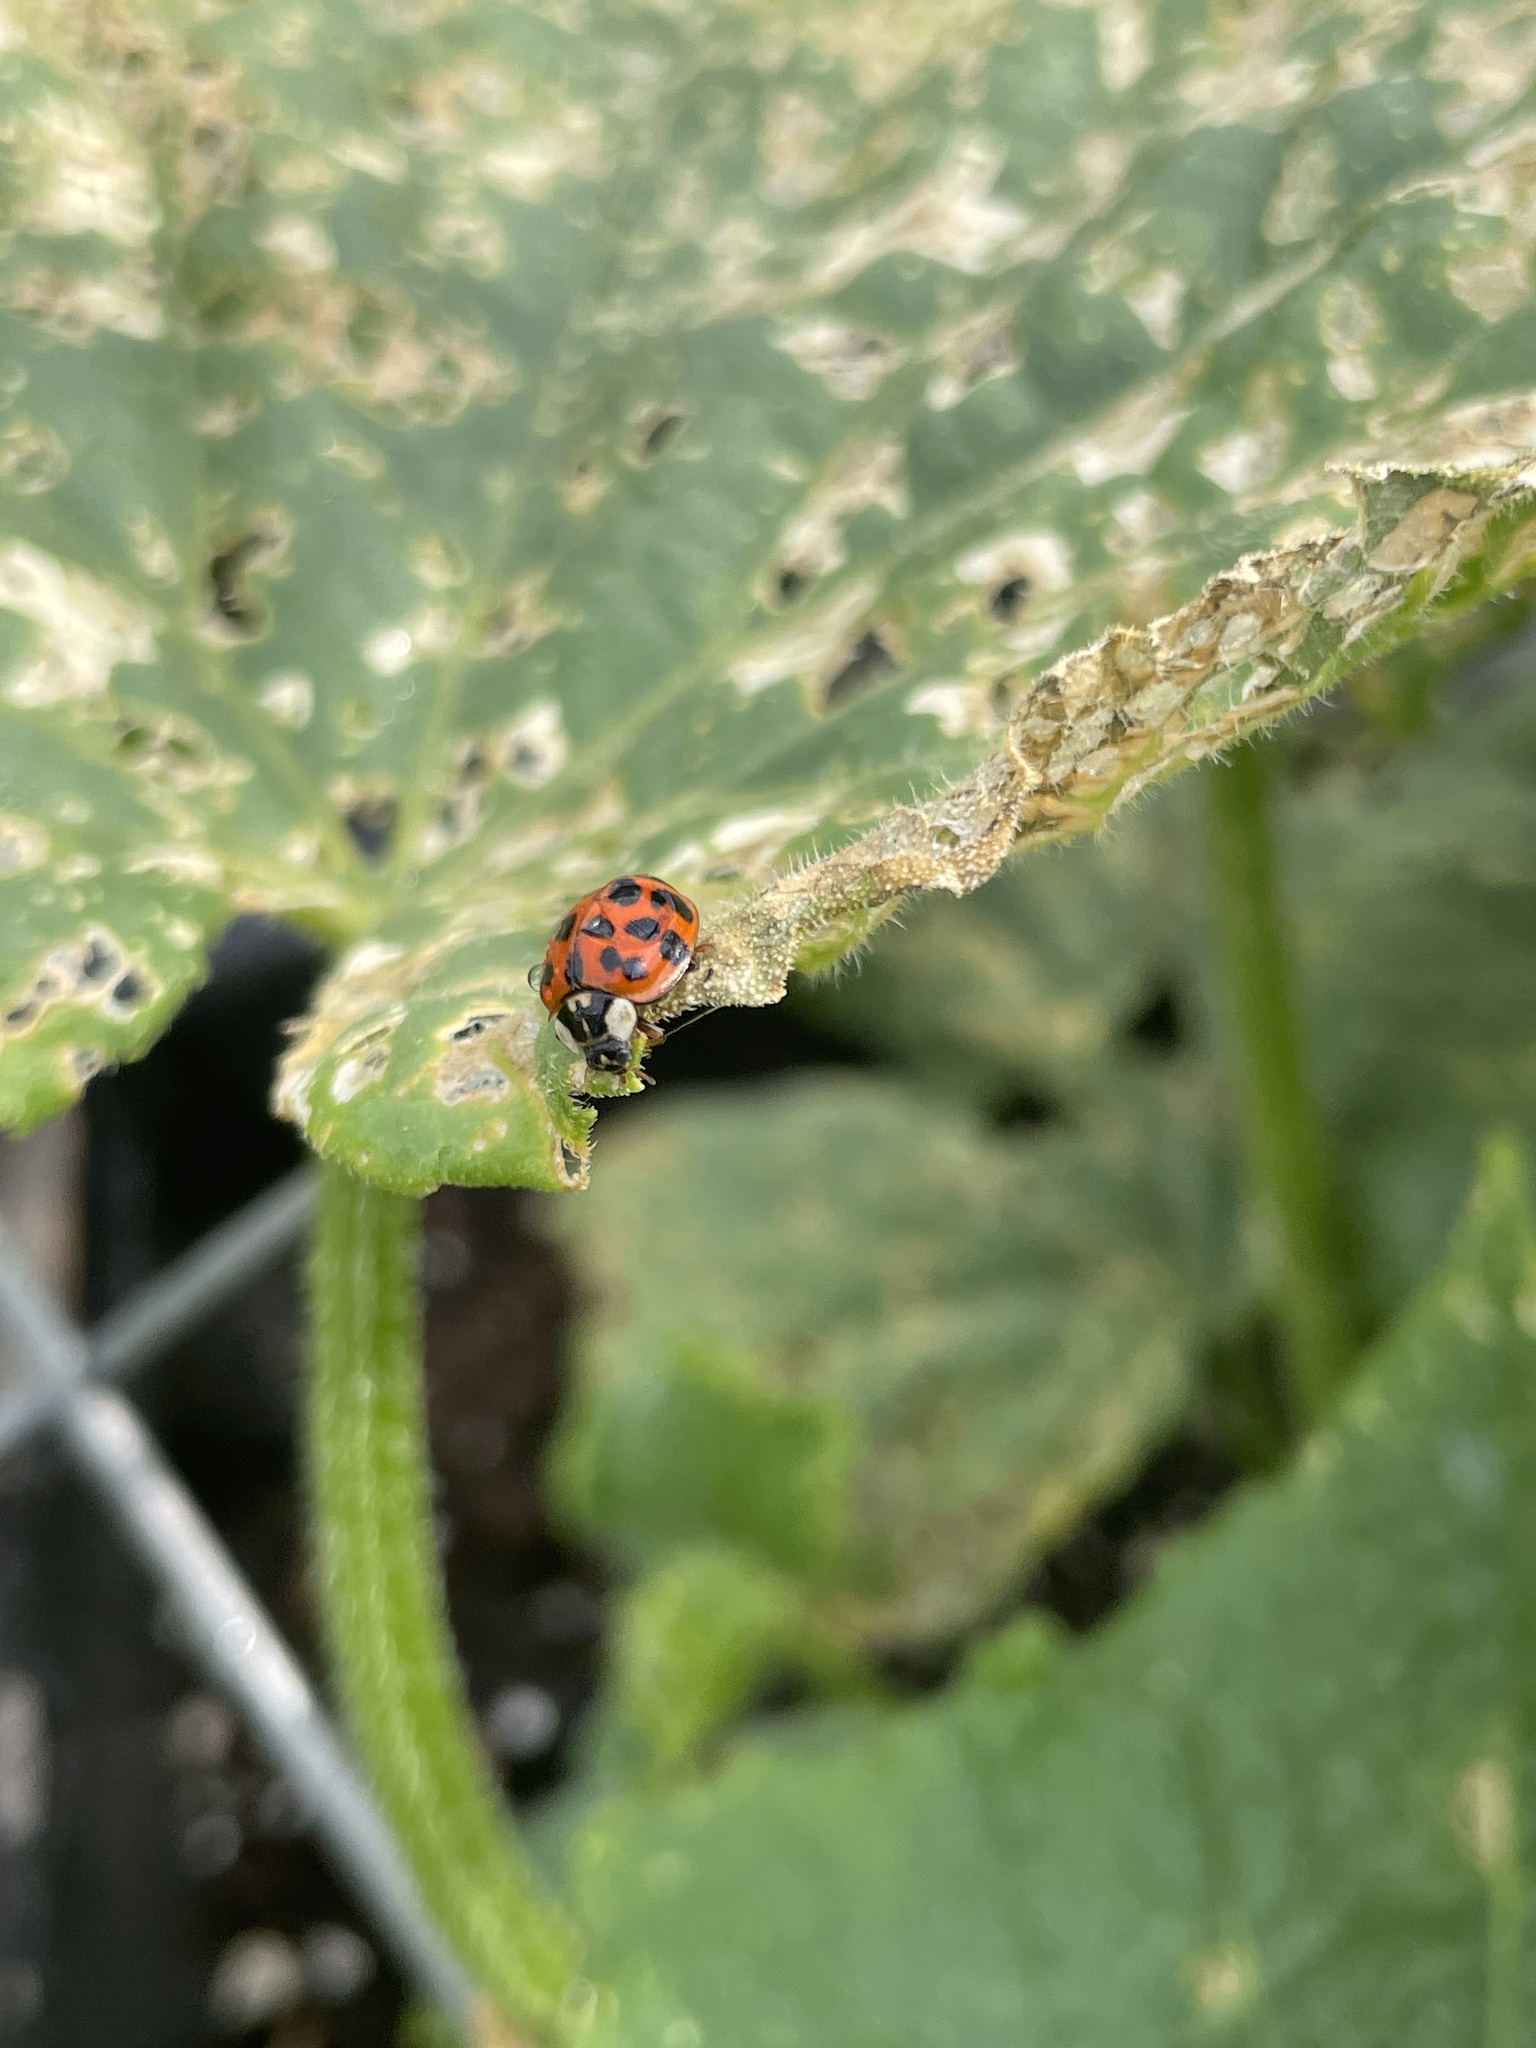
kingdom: Animalia
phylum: Arthropoda
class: Insecta
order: Coleoptera
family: Coccinellidae
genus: Harmonia
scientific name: Harmonia axyridis
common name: Harlequin ladybird
